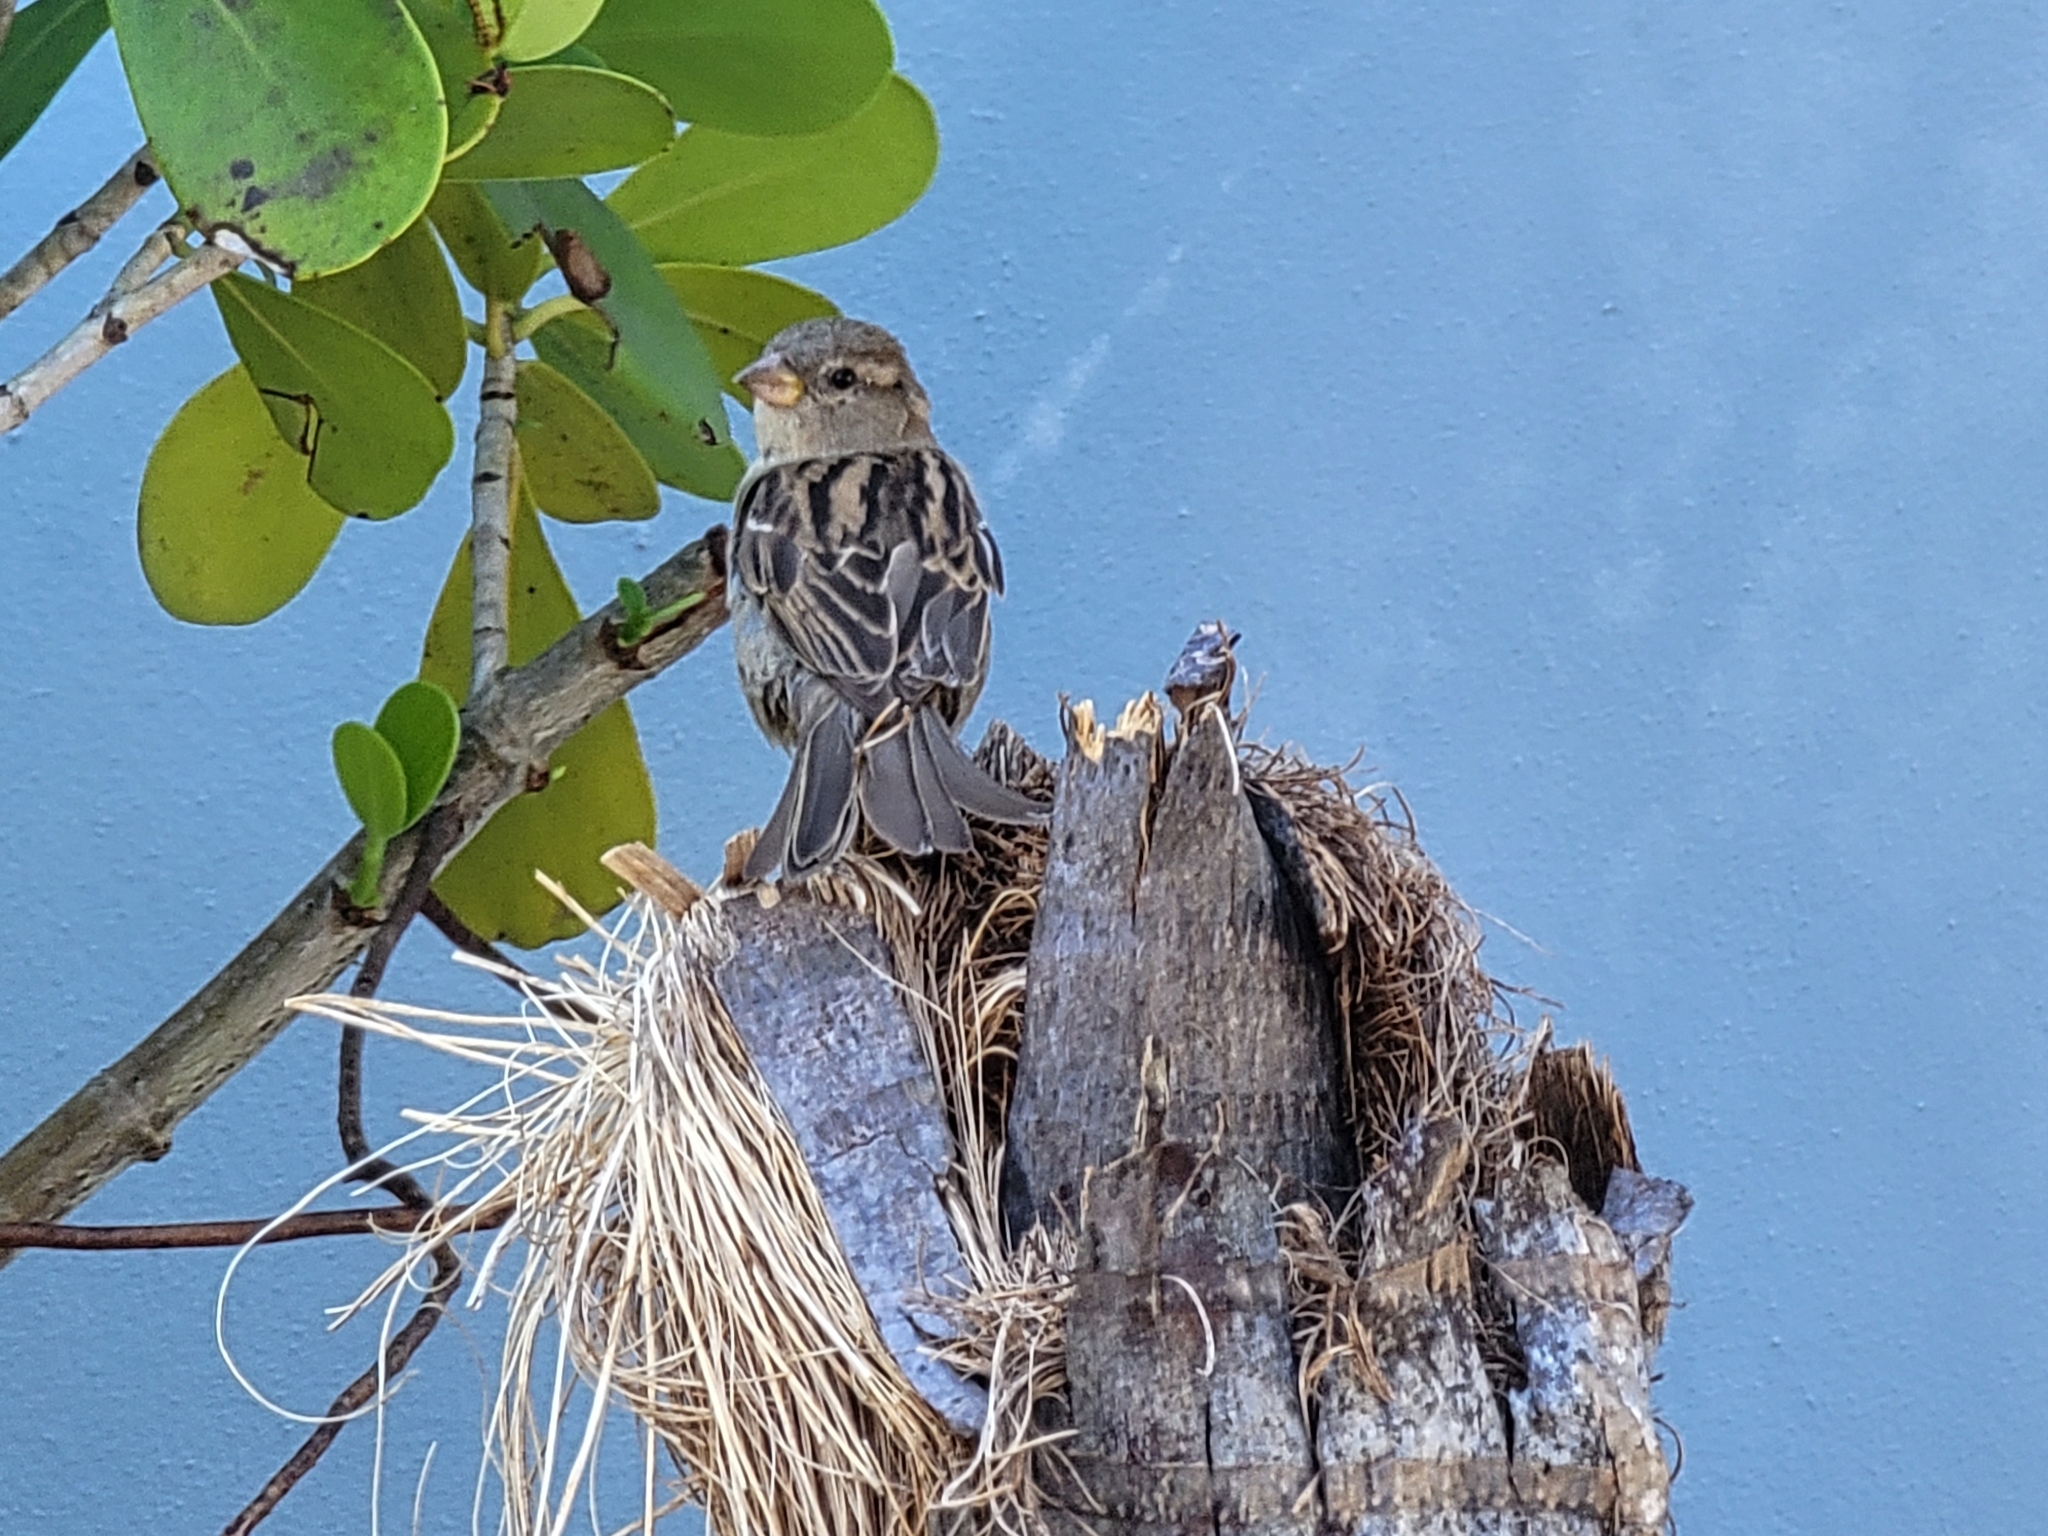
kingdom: Animalia
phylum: Chordata
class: Aves
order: Passeriformes
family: Passeridae
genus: Passer
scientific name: Passer domesticus
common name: House sparrow
